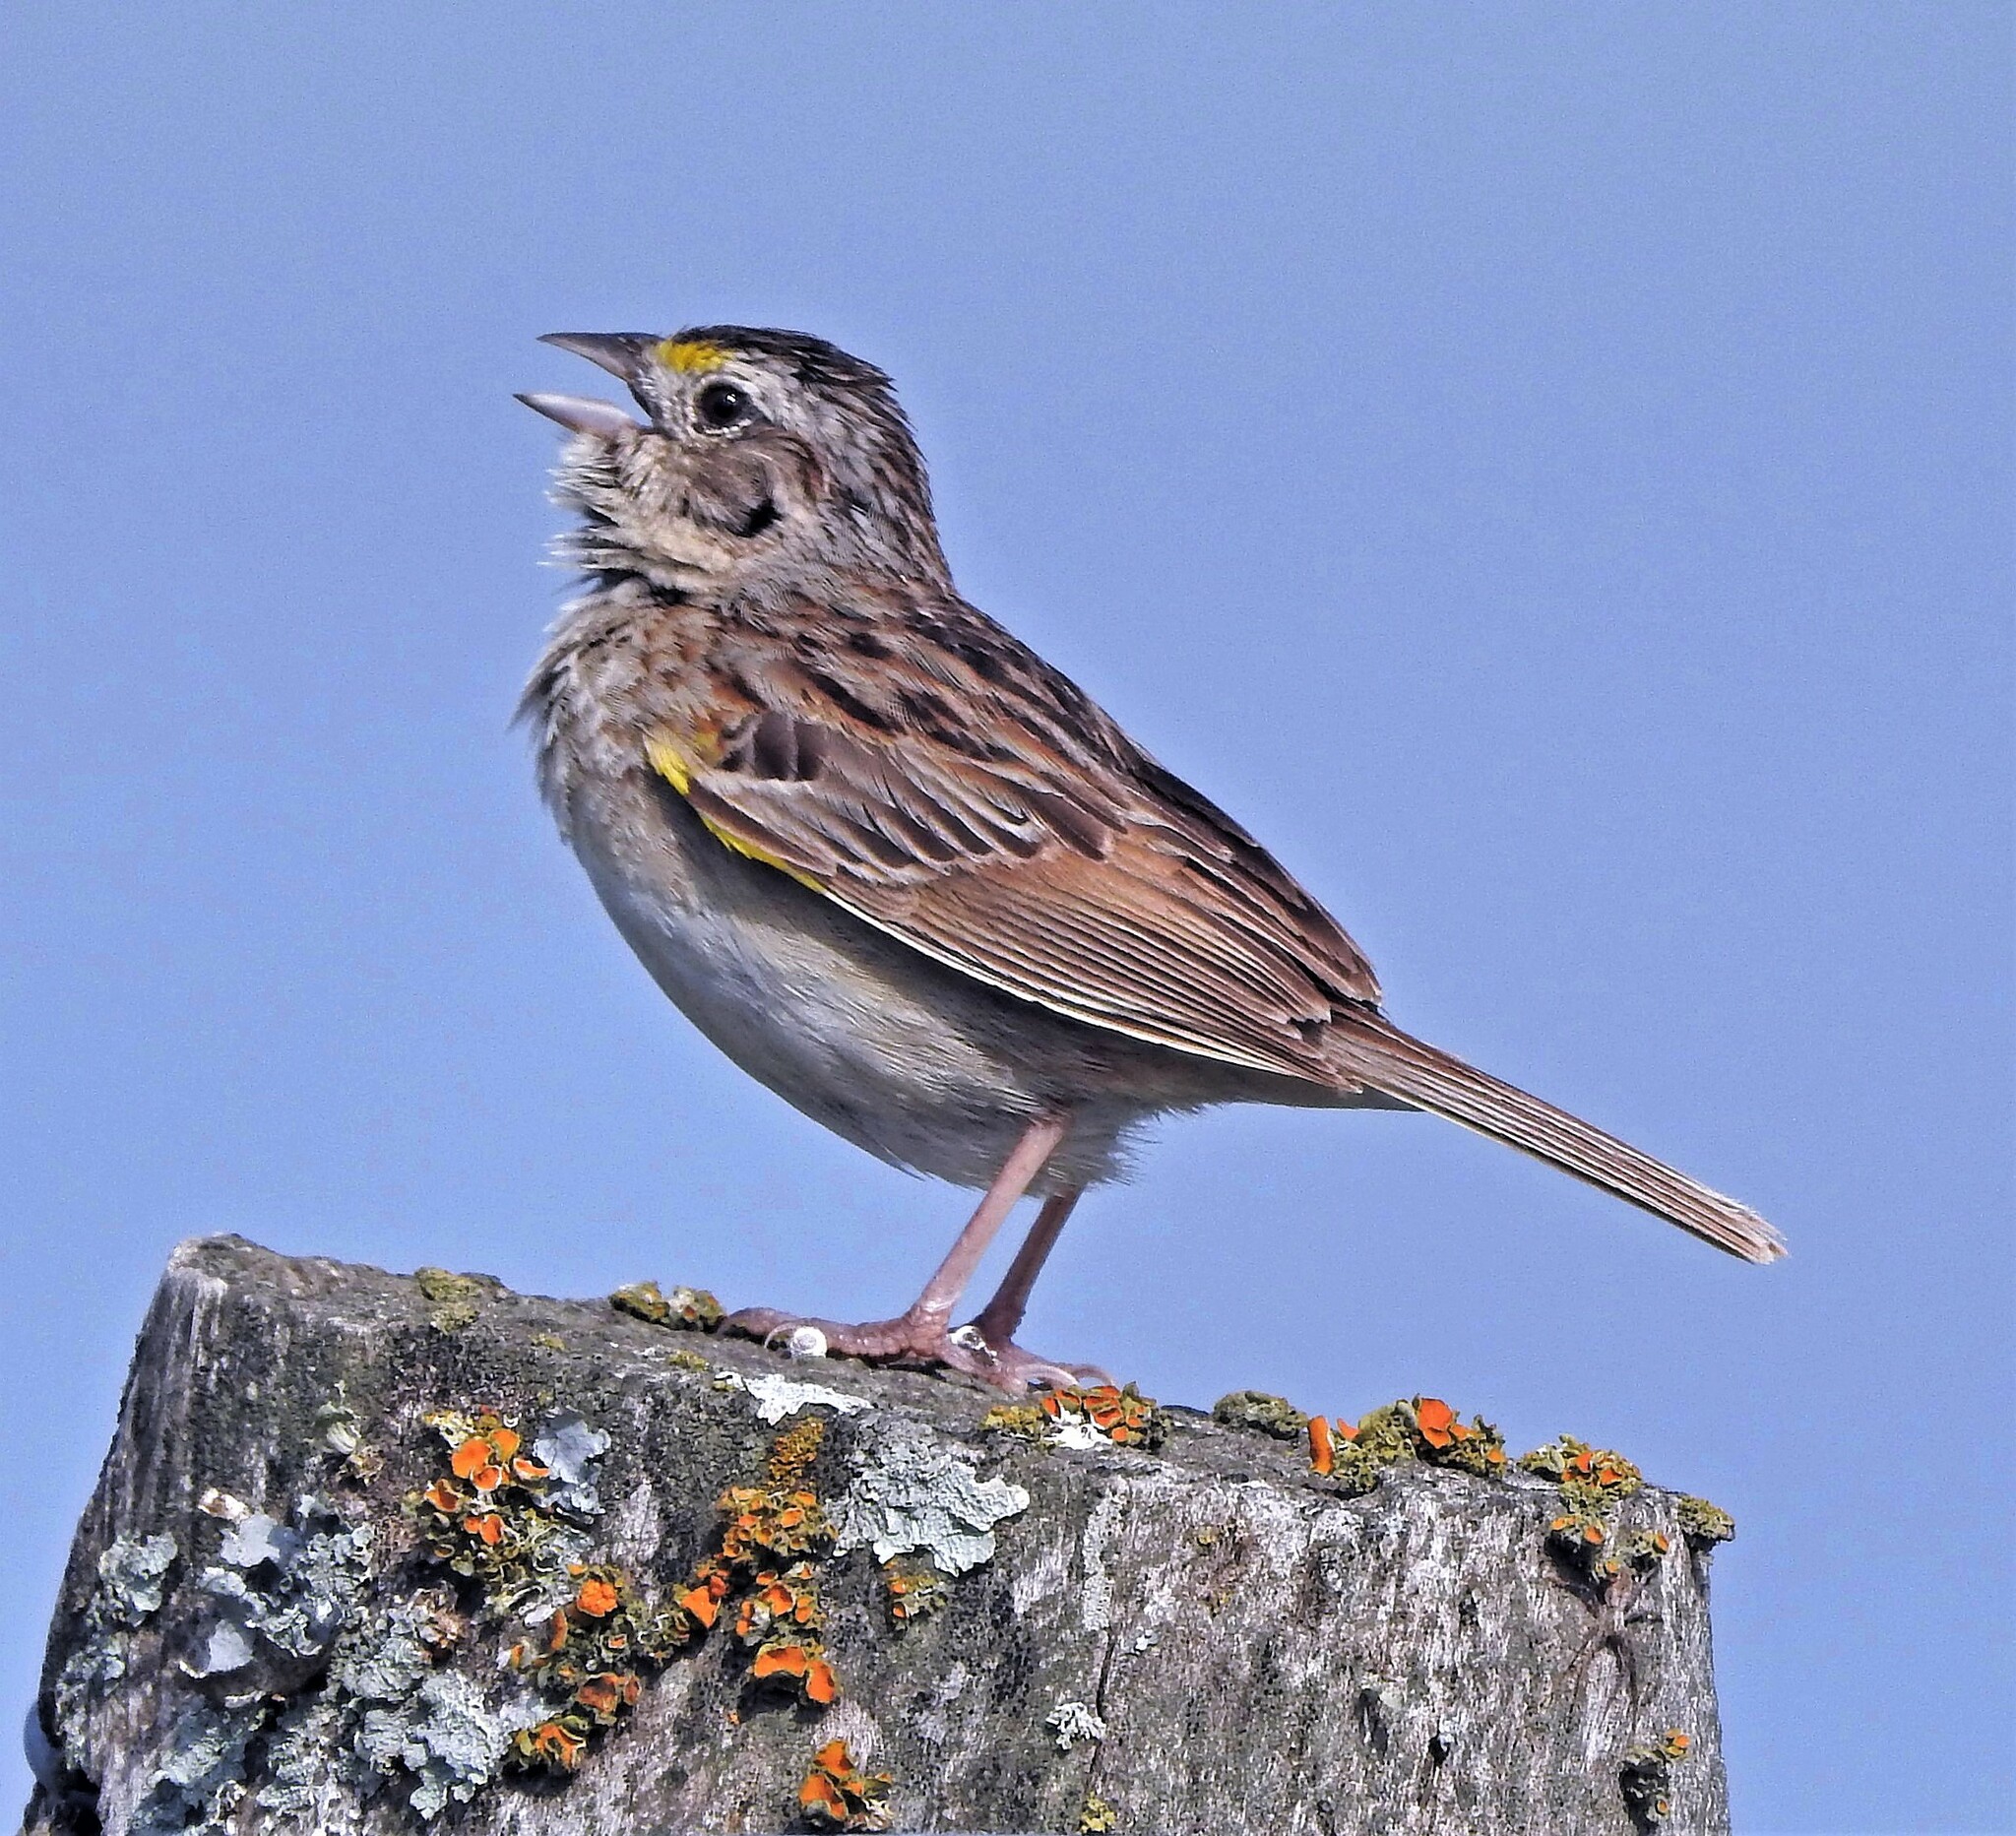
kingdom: Animalia
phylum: Chordata
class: Aves
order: Passeriformes
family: Passerellidae
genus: Ammodramus
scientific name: Ammodramus humeralis
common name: Grassland sparrow
